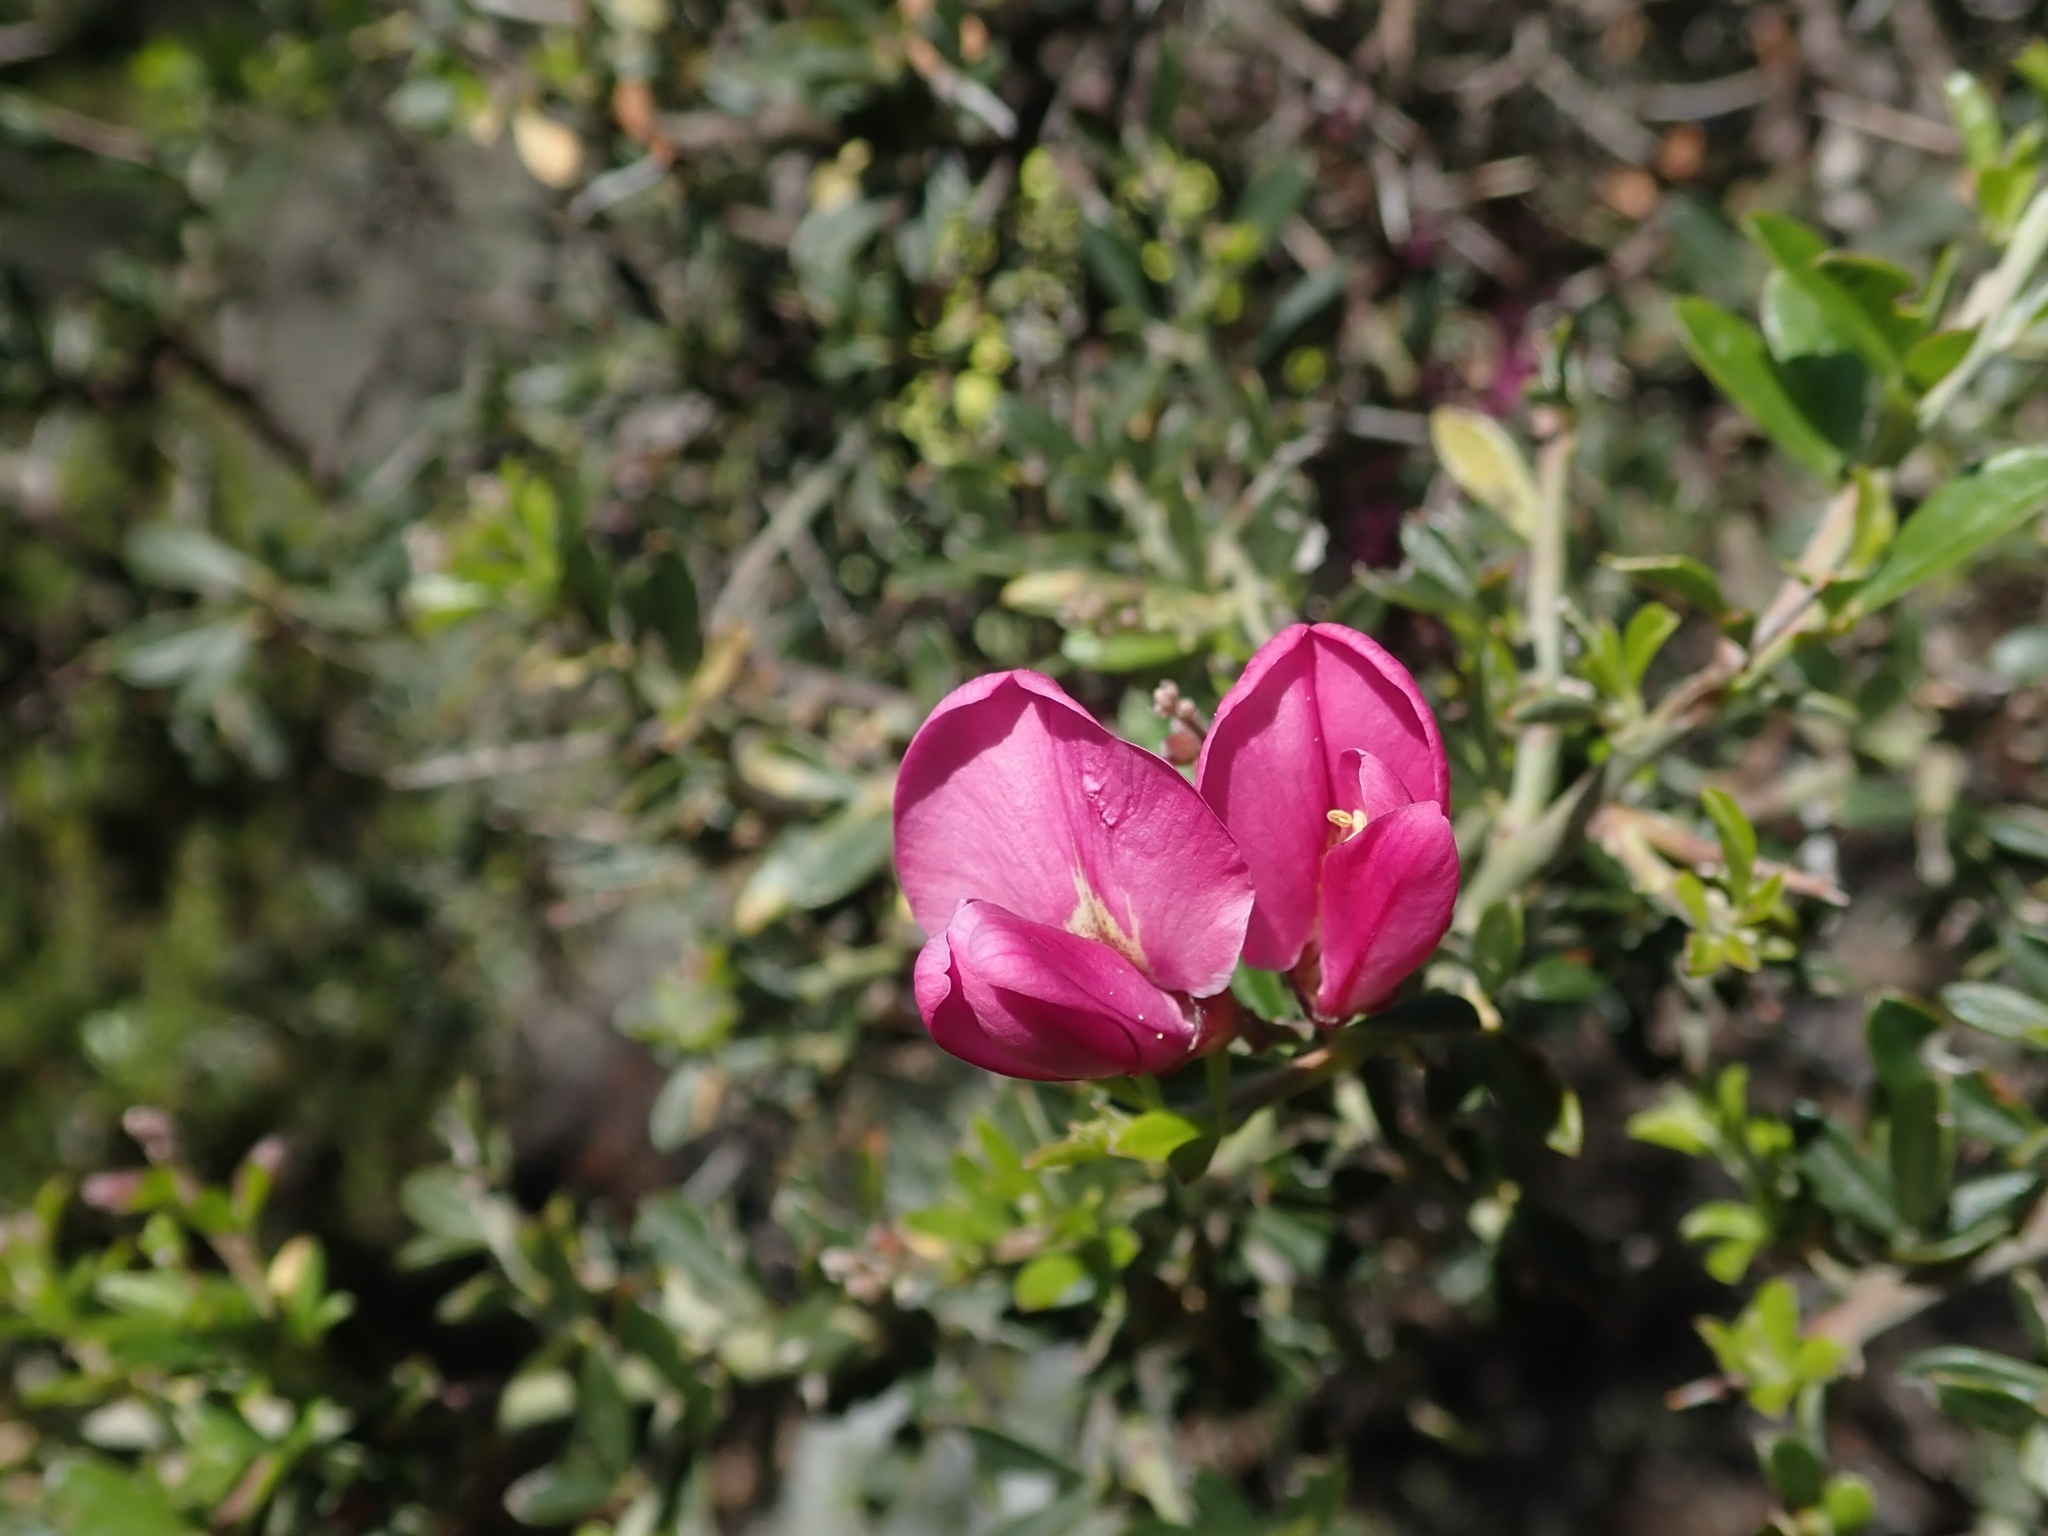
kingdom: Plantae
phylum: Tracheophyta
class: Magnoliopsida
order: Fabales
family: Fabaceae
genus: Pickeringia
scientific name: Pickeringia montana
